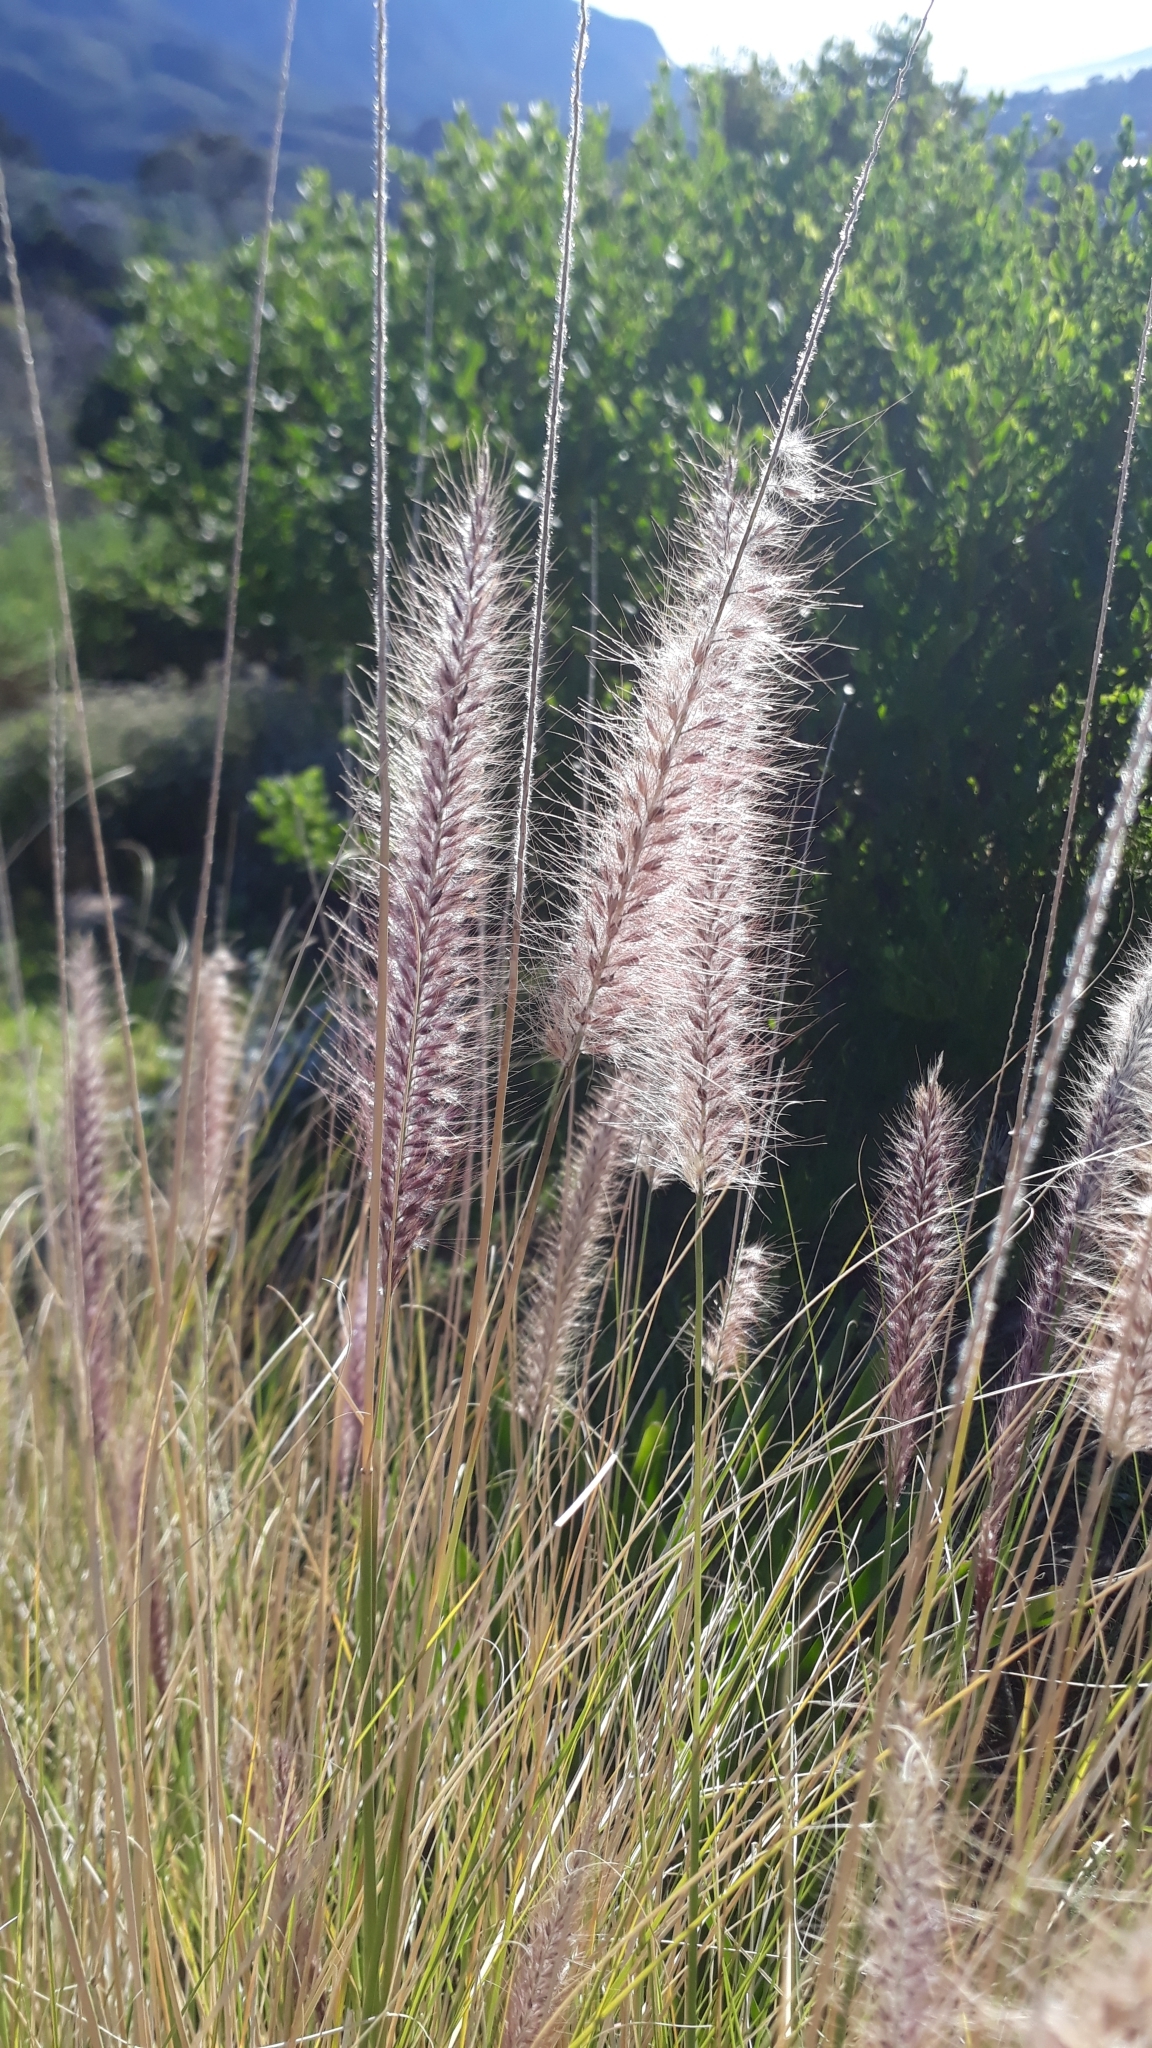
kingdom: Plantae
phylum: Tracheophyta
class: Liliopsida
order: Poales
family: Poaceae
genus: Cenchrus
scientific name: Cenchrus setaceus
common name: Crimson fountaingrass
